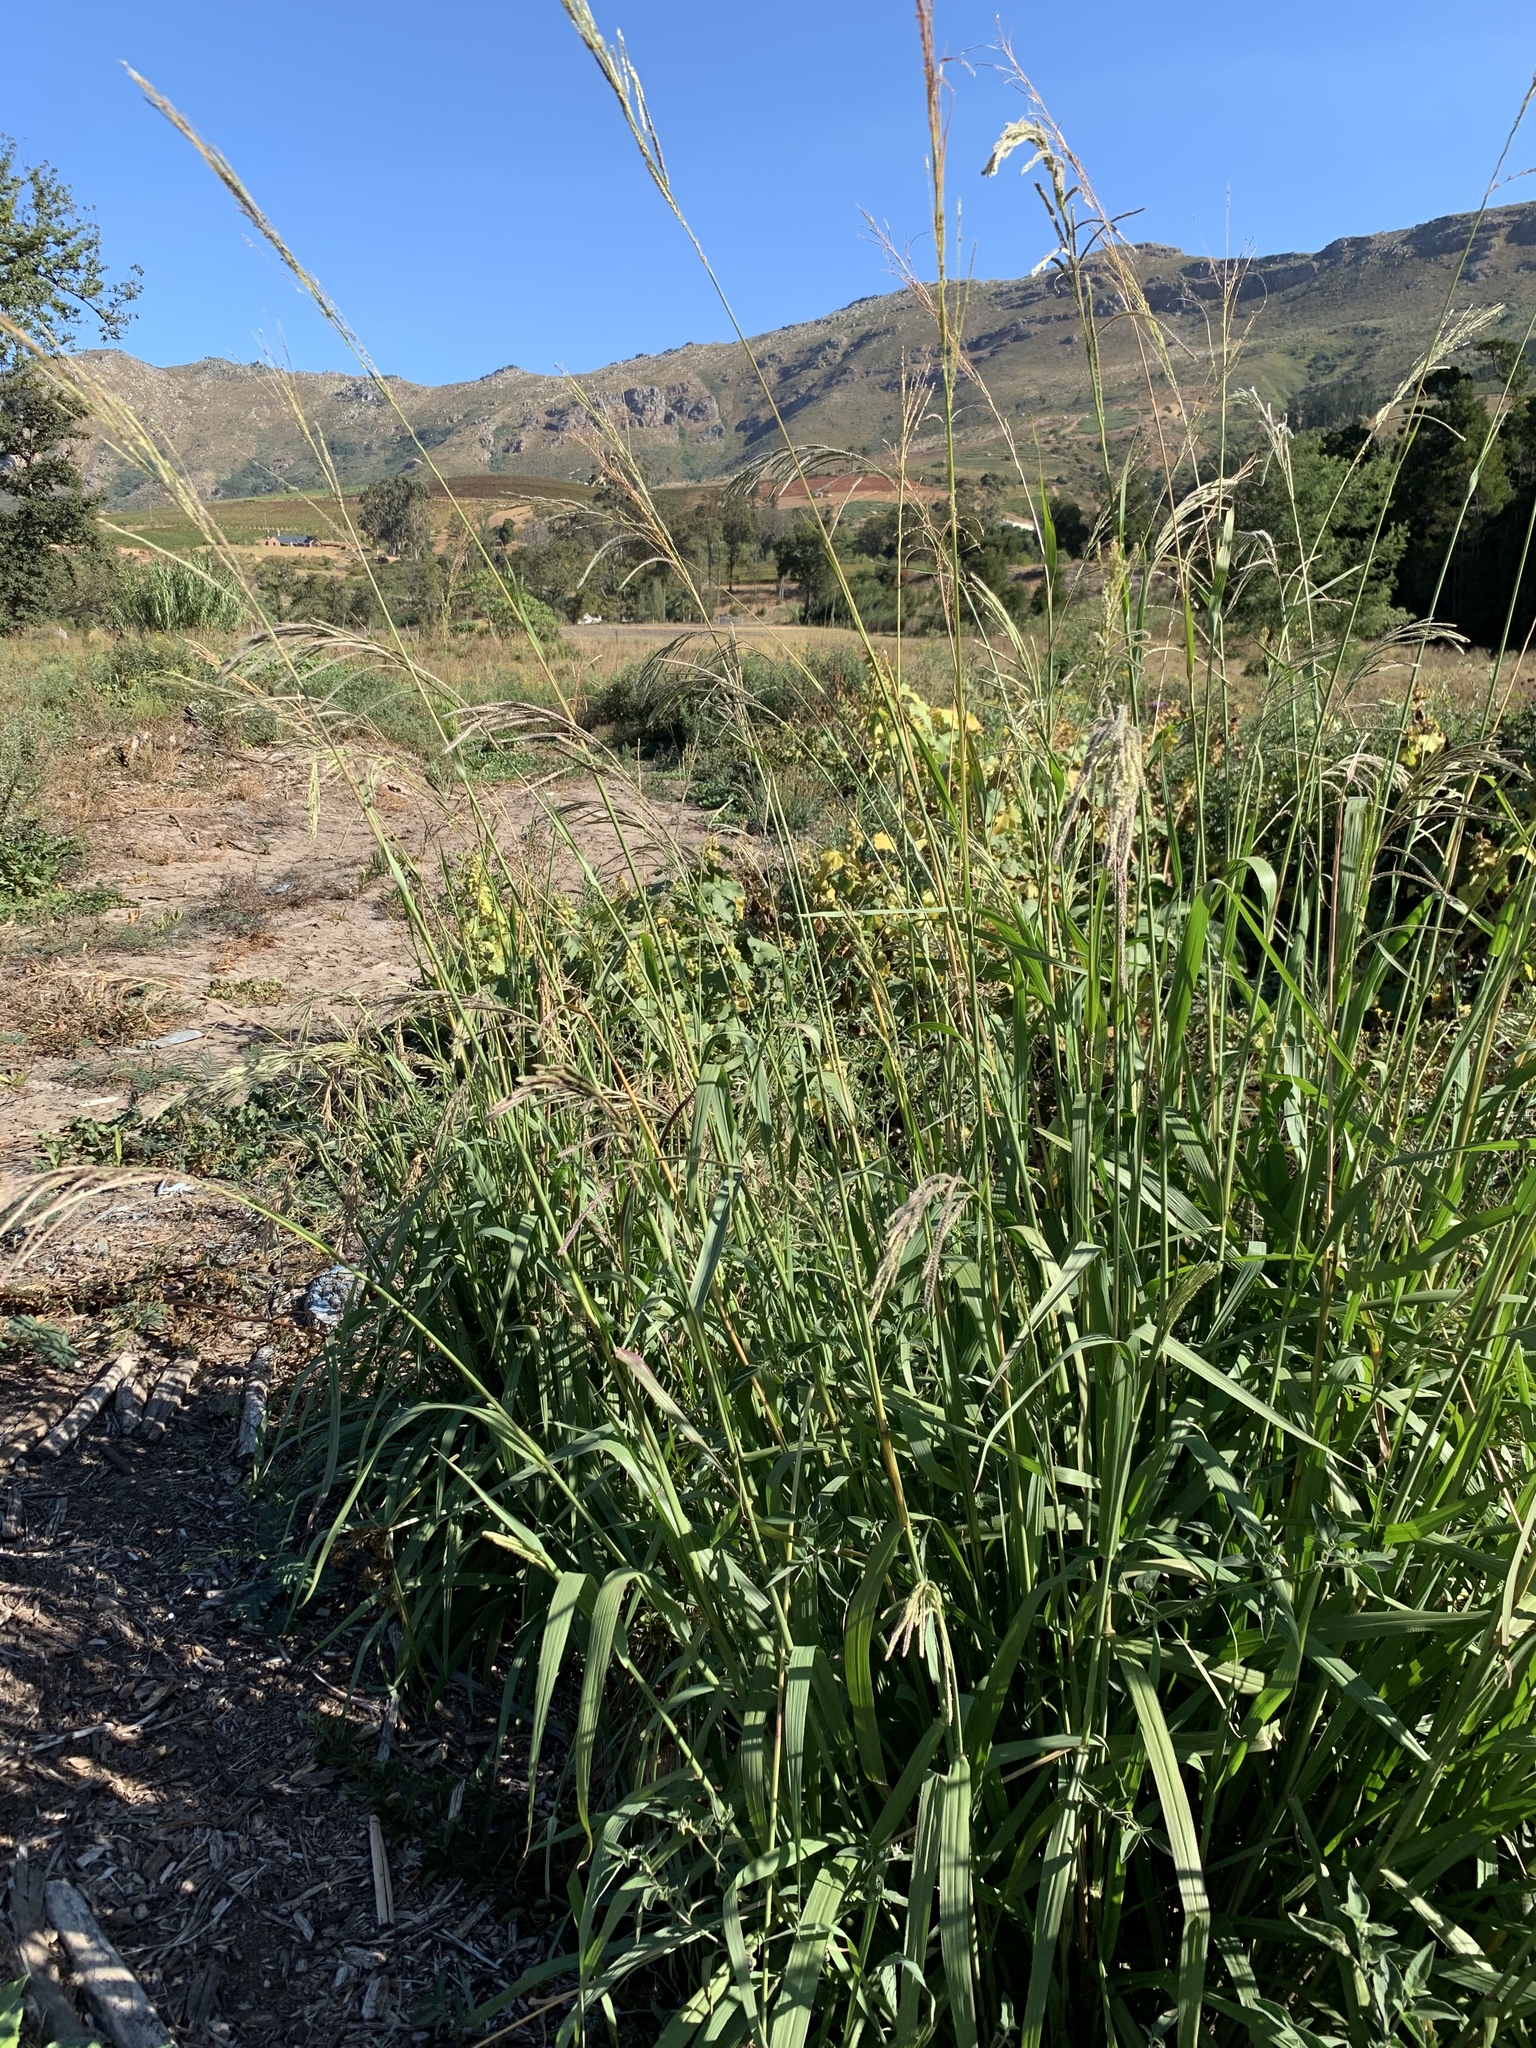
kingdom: Plantae
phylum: Tracheophyta
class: Liliopsida
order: Poales
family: Poaceae
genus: Paspalum
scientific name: Paspalum urvillei
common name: Vasey's grass
